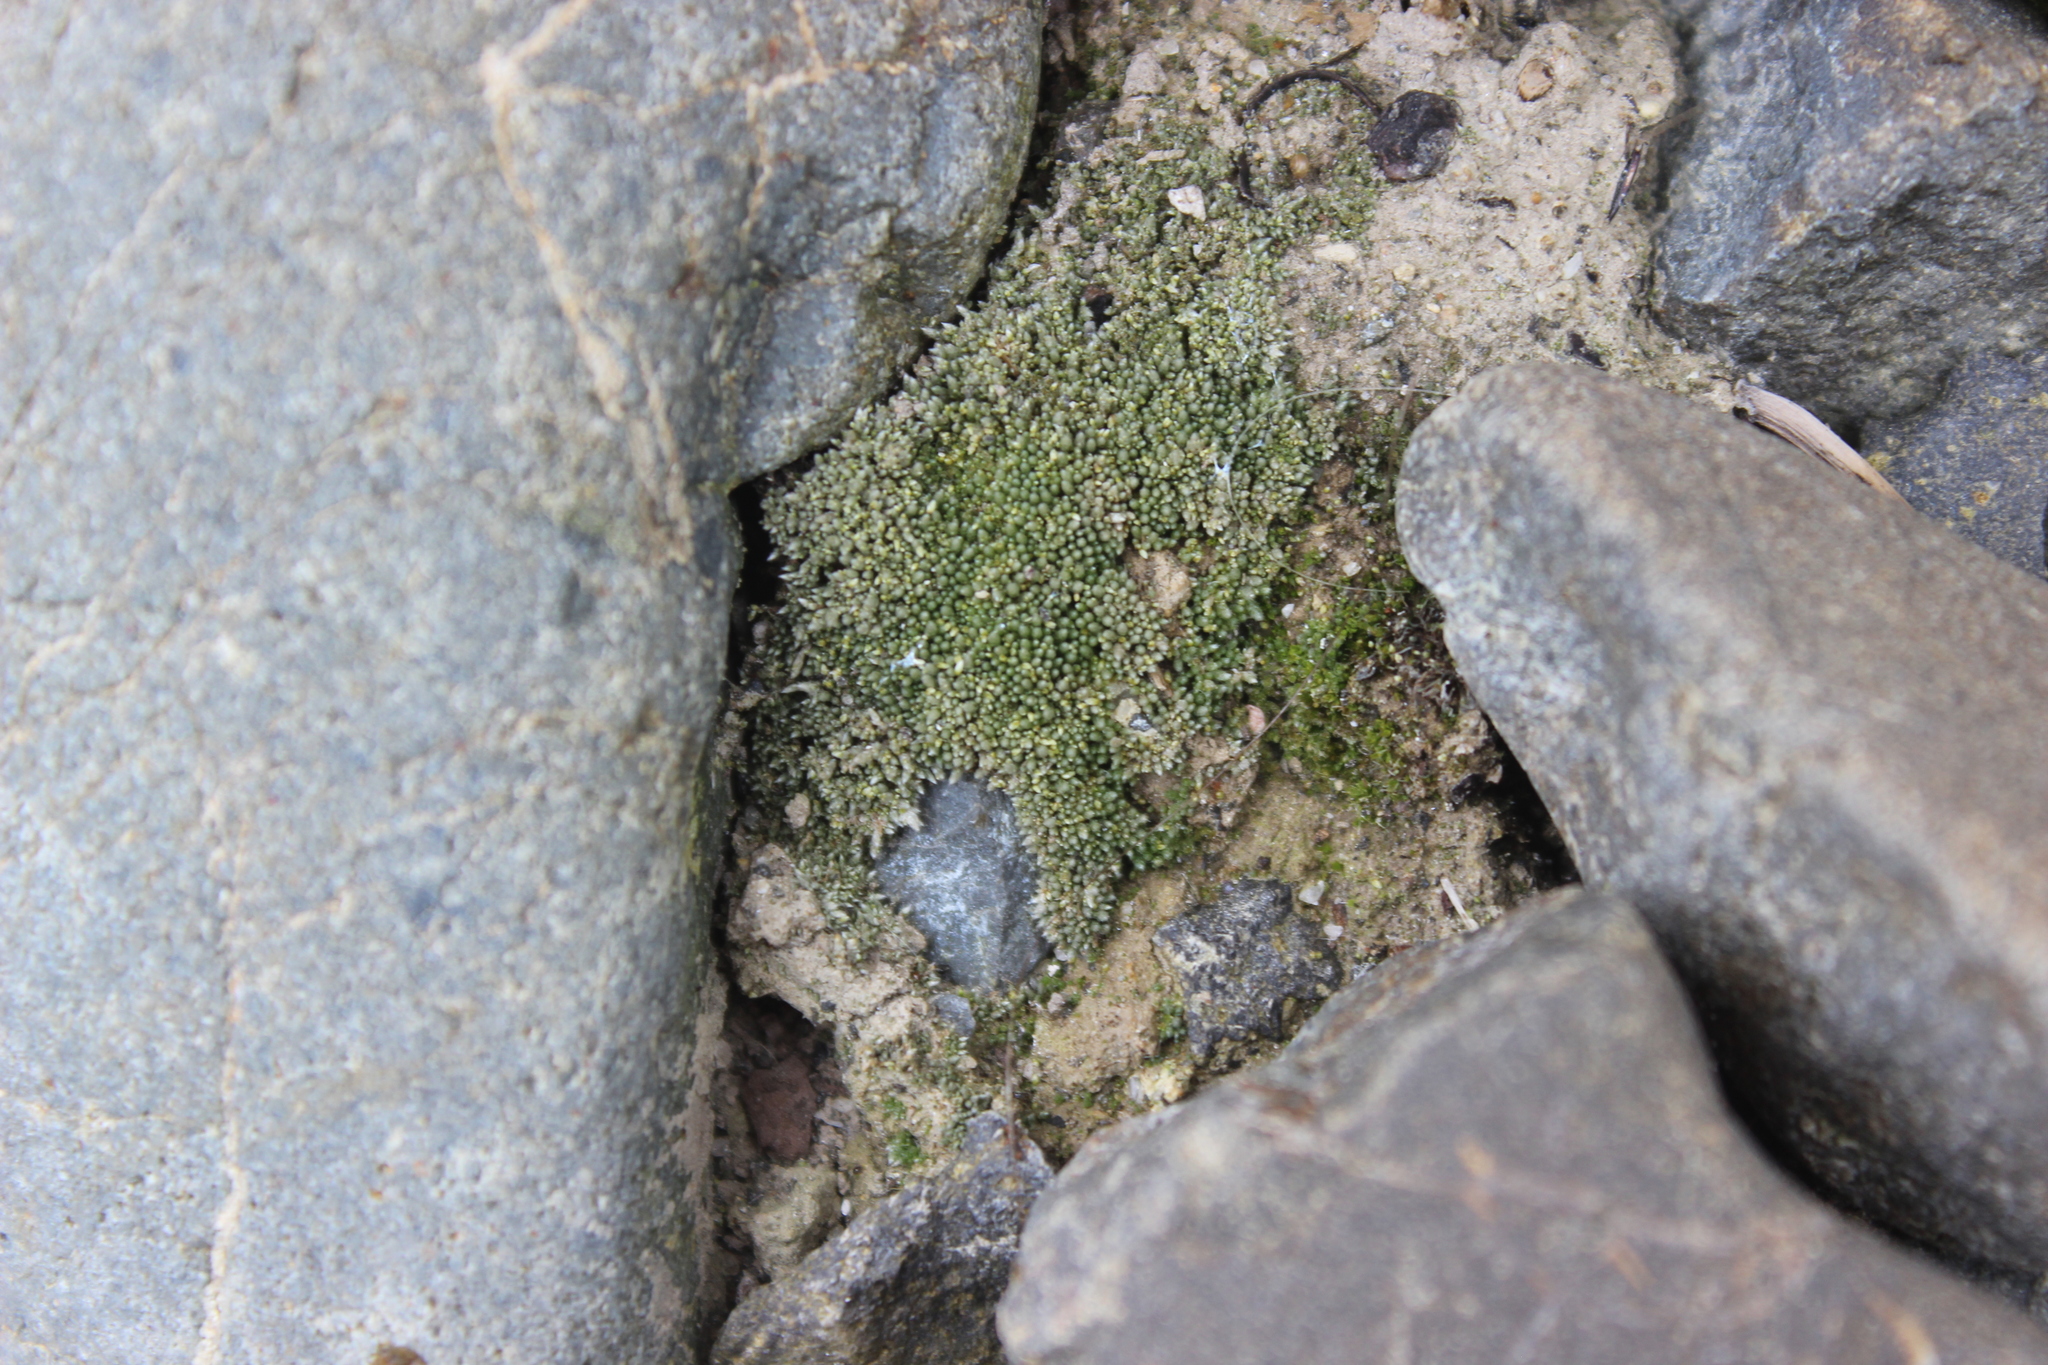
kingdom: Plantae
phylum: Bryophyta
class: Bryopsida
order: Bryales
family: Bryaceae
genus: Bryum
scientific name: Bryum argenteum
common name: Silver-moss
